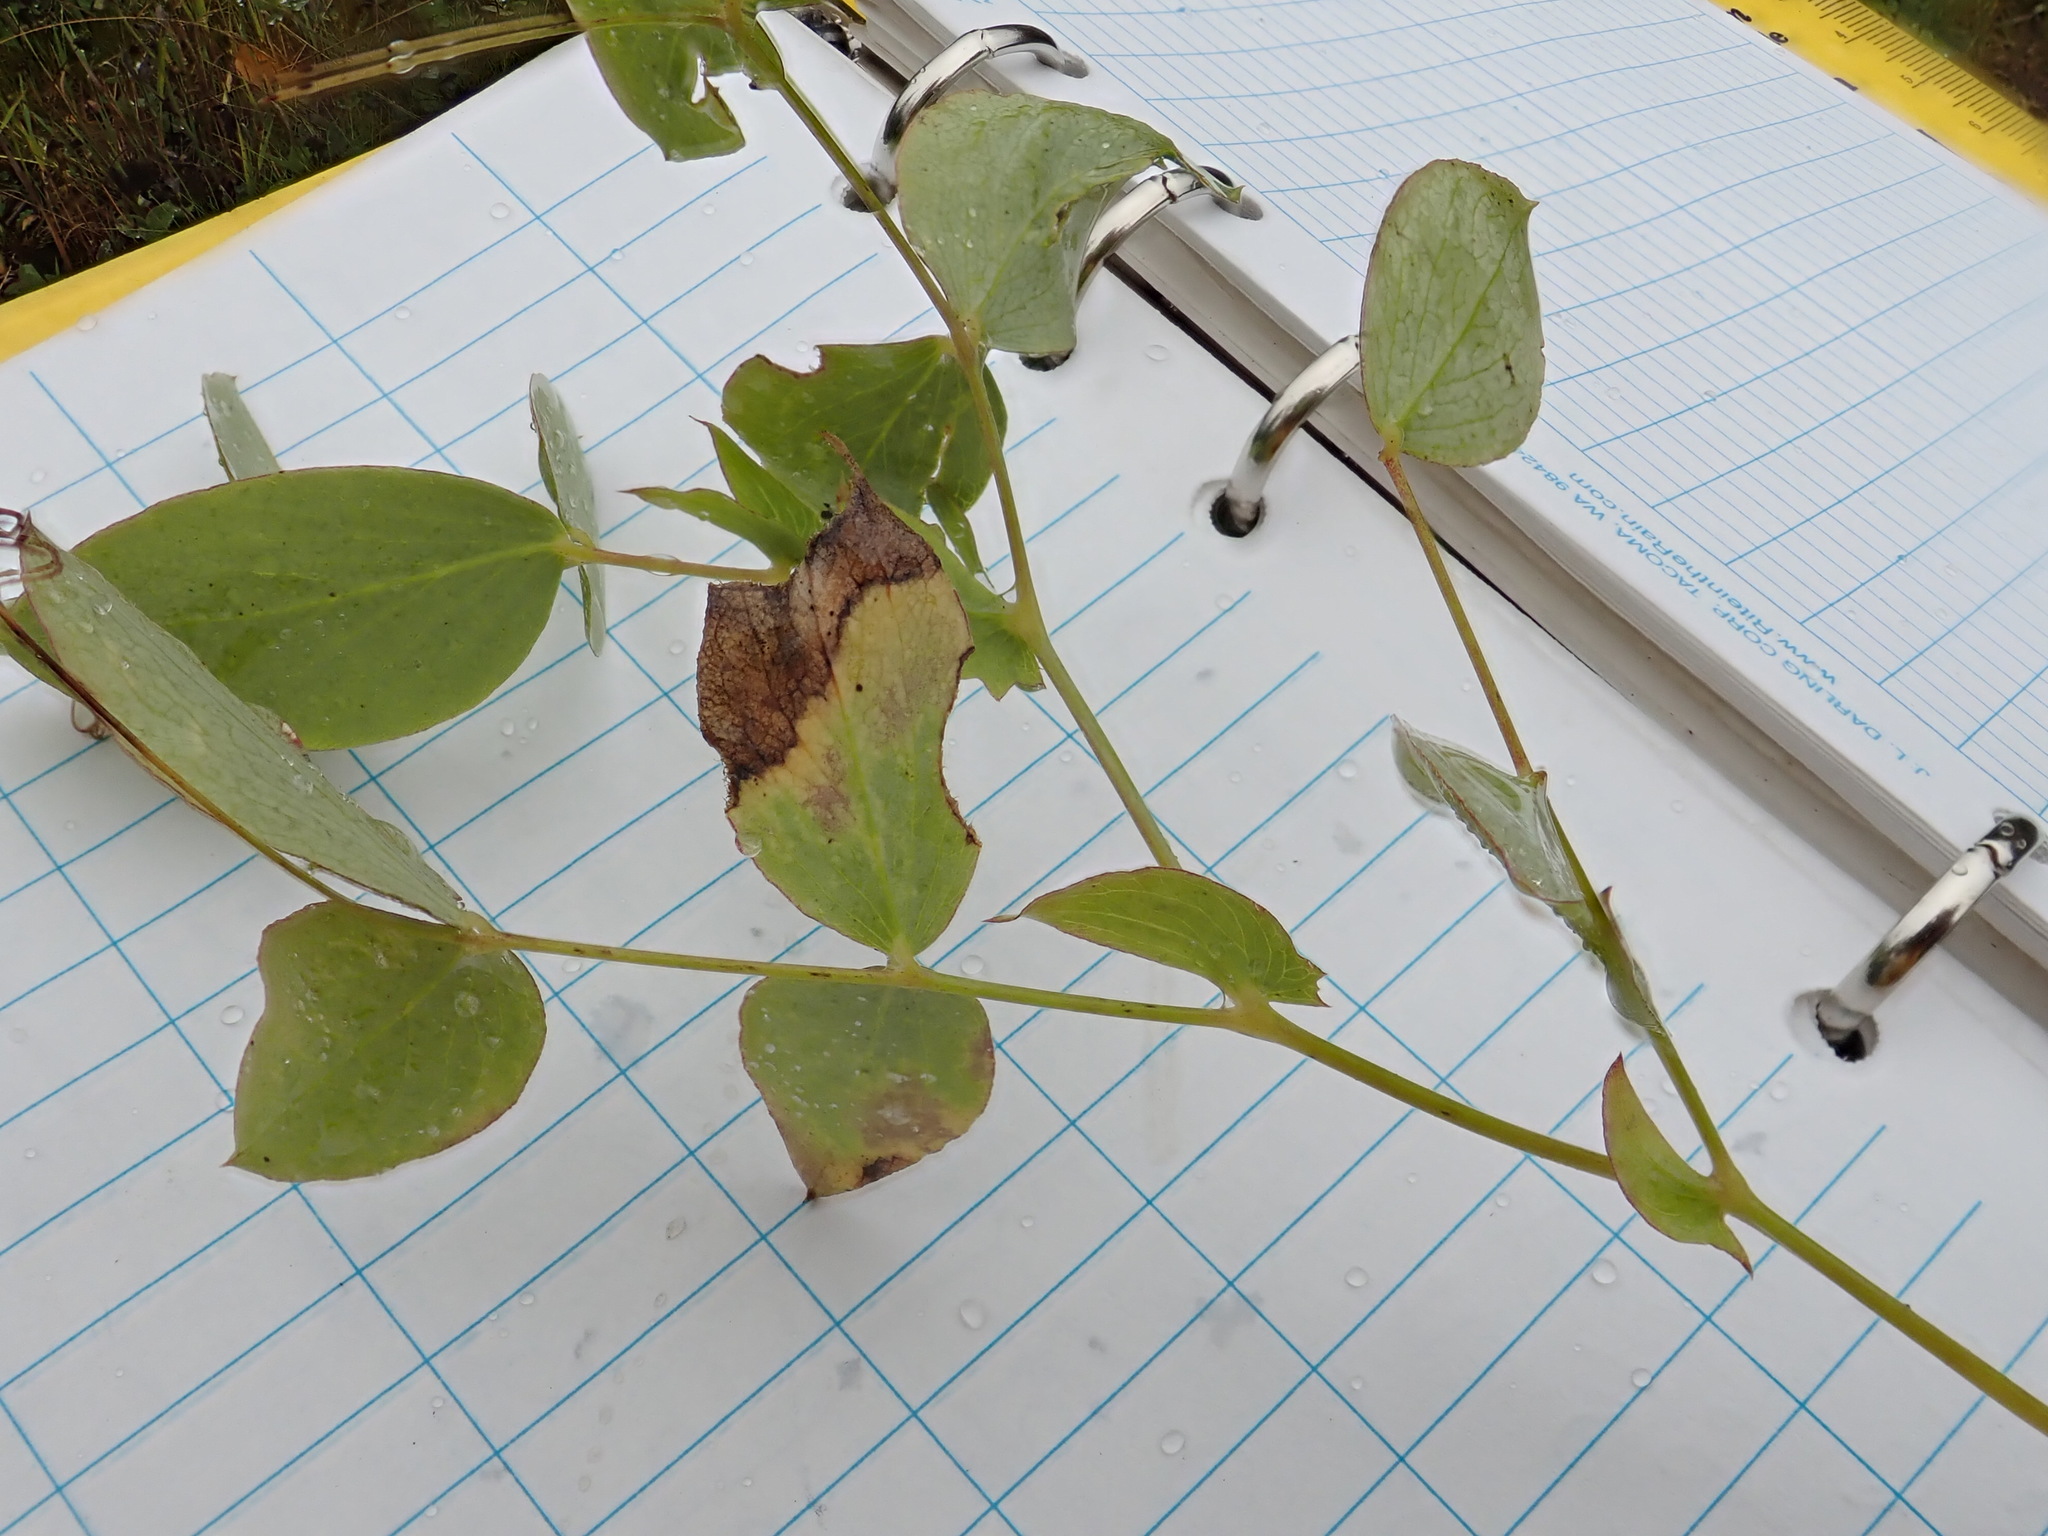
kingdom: Plantae
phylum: Tracheophyta
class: Magnoliopsida
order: Fabales
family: Fabaceae
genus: Lathyrus
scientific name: Lathyrus ochroleucus
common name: Pale vetchling
